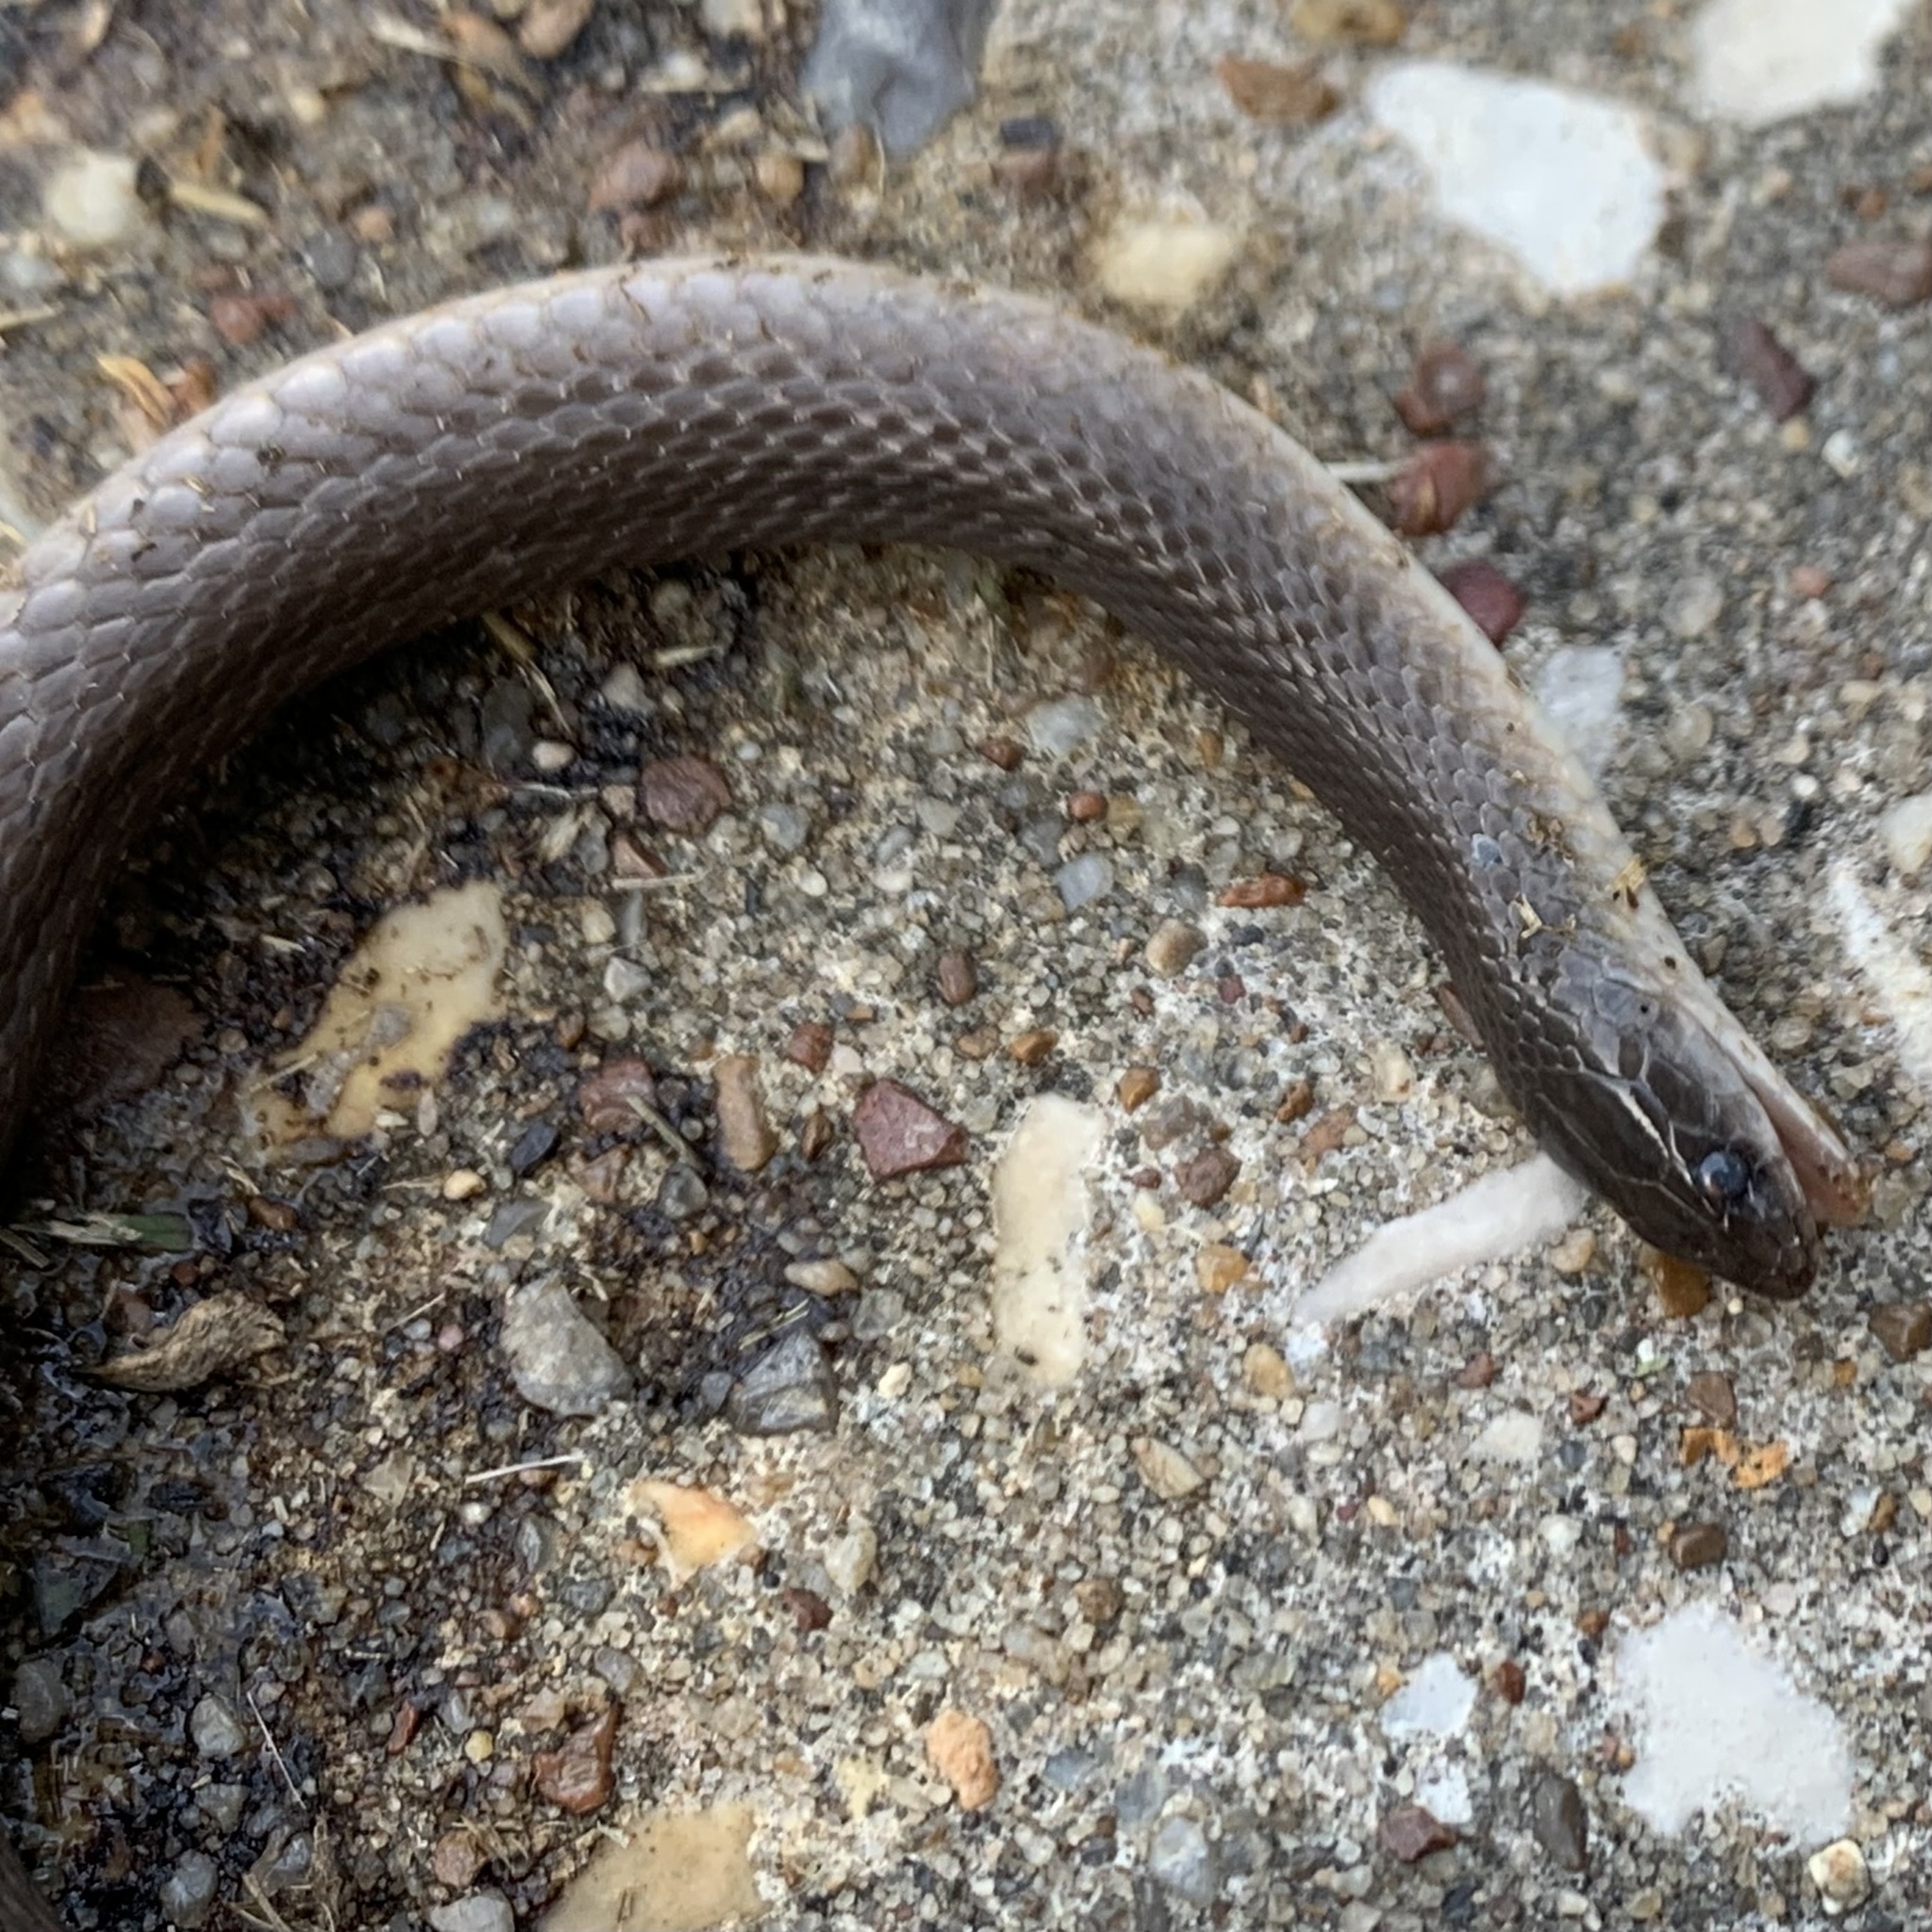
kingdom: Animalia
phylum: Chordata
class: Squamata
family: Colubridae
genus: Haldea
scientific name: Haldea striatula
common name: Rough earth snake
